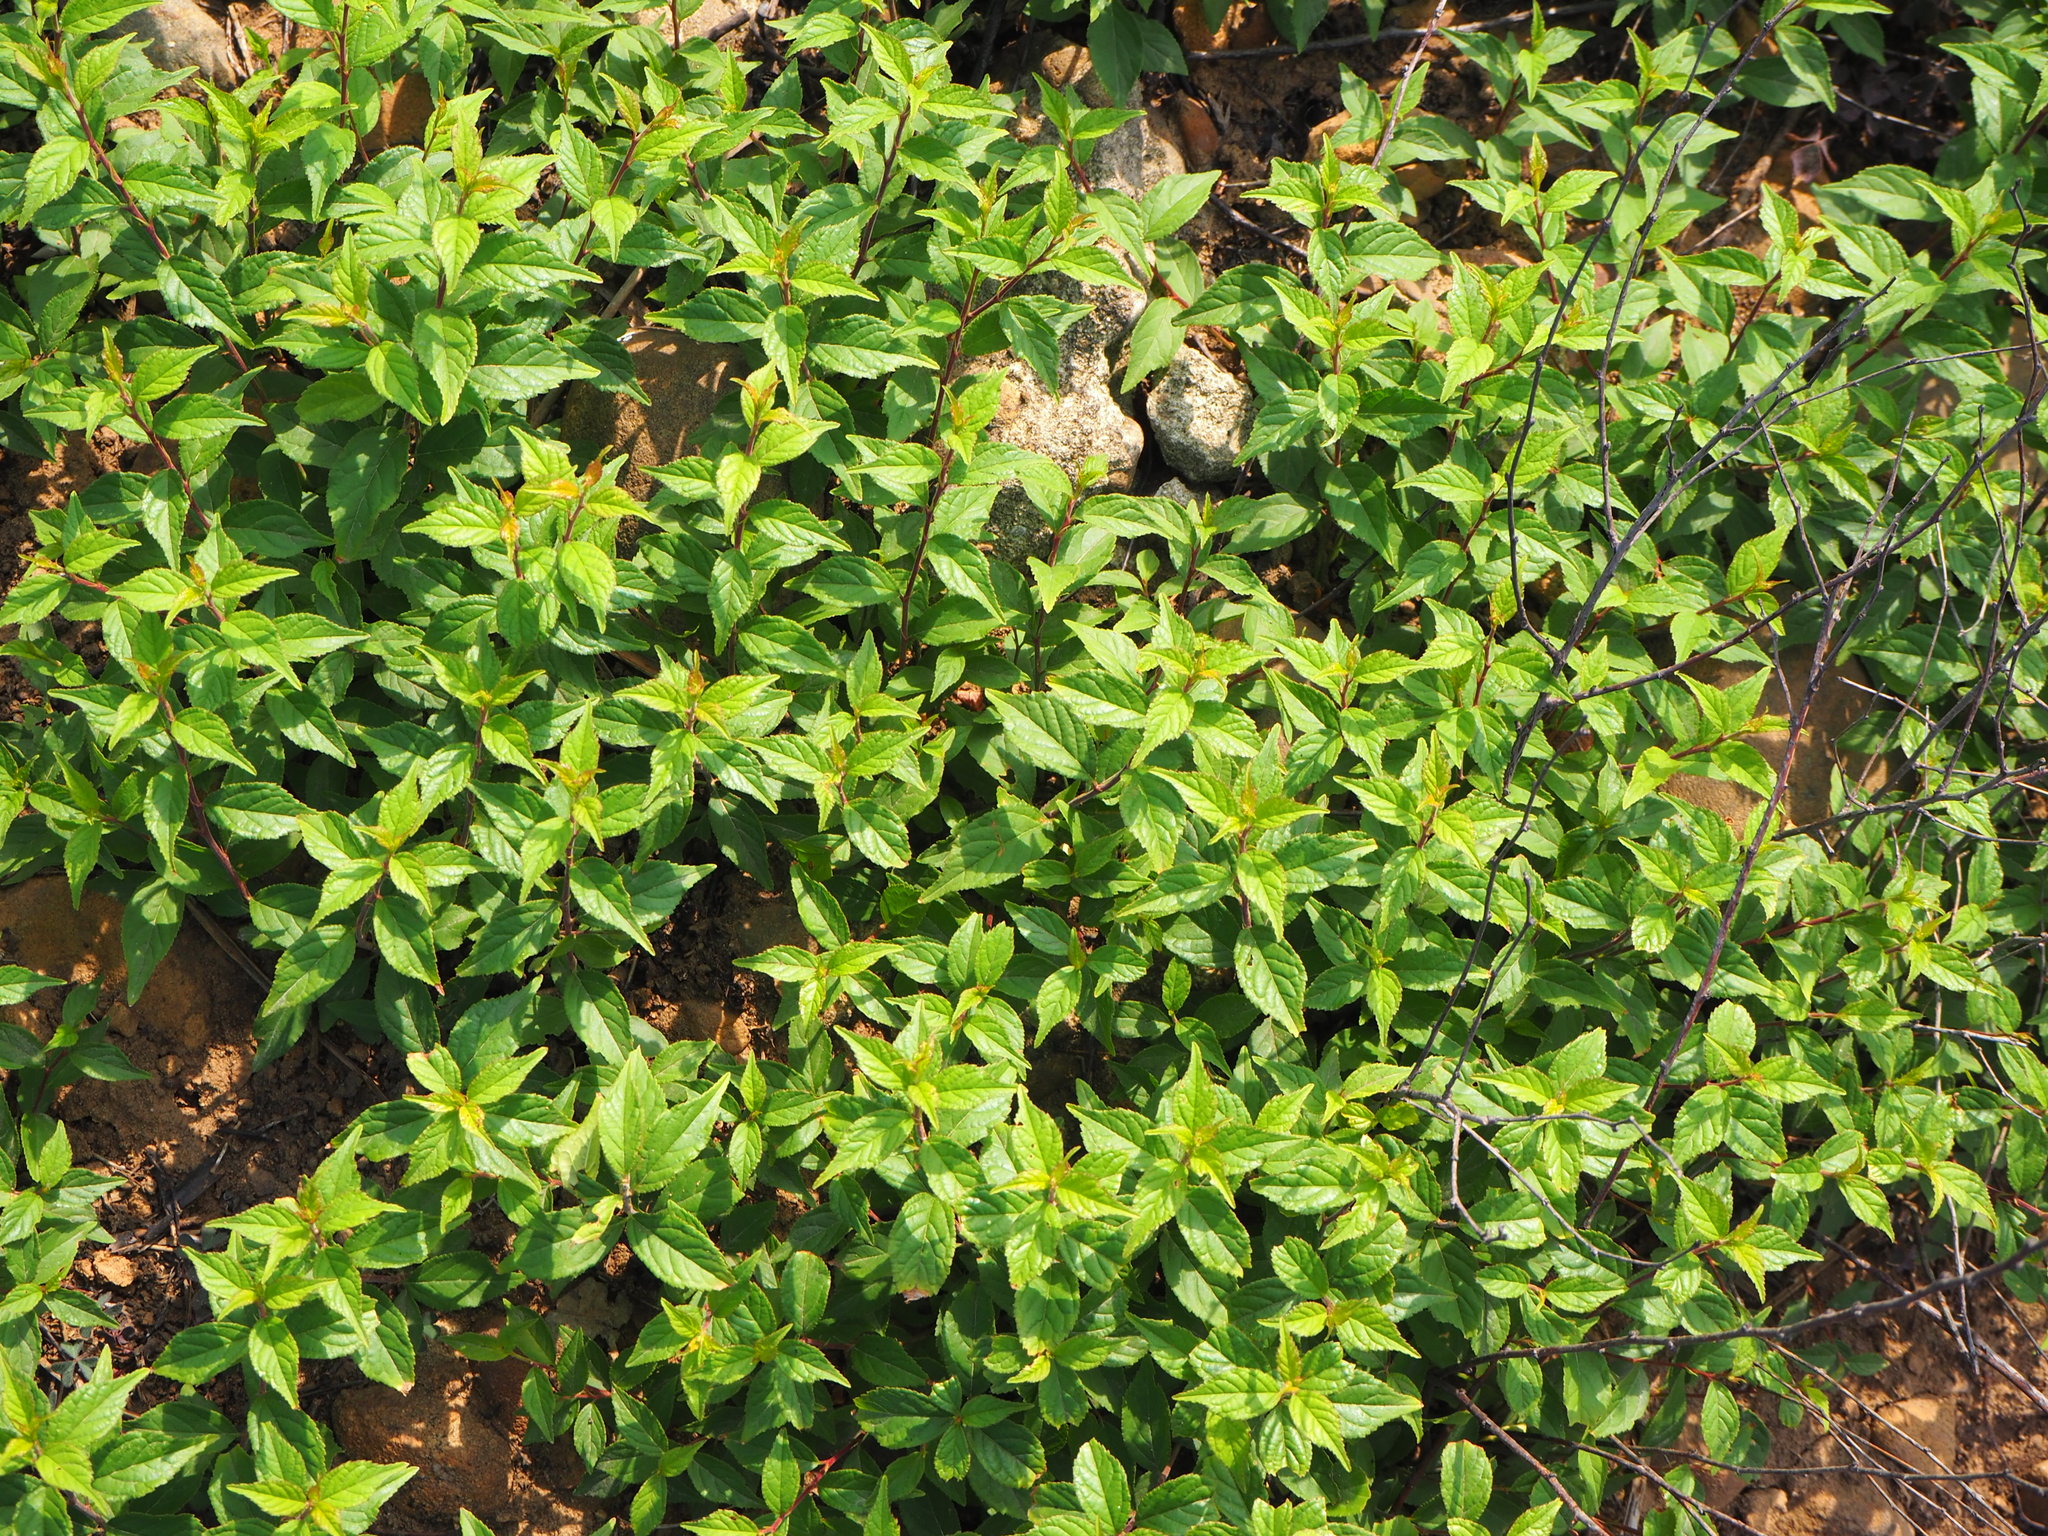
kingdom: Plantae
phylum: Tracheophyta
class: Magnoliopsida
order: Rosales
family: Rosaceae
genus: Prunus
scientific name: Prunus pogonostyla
